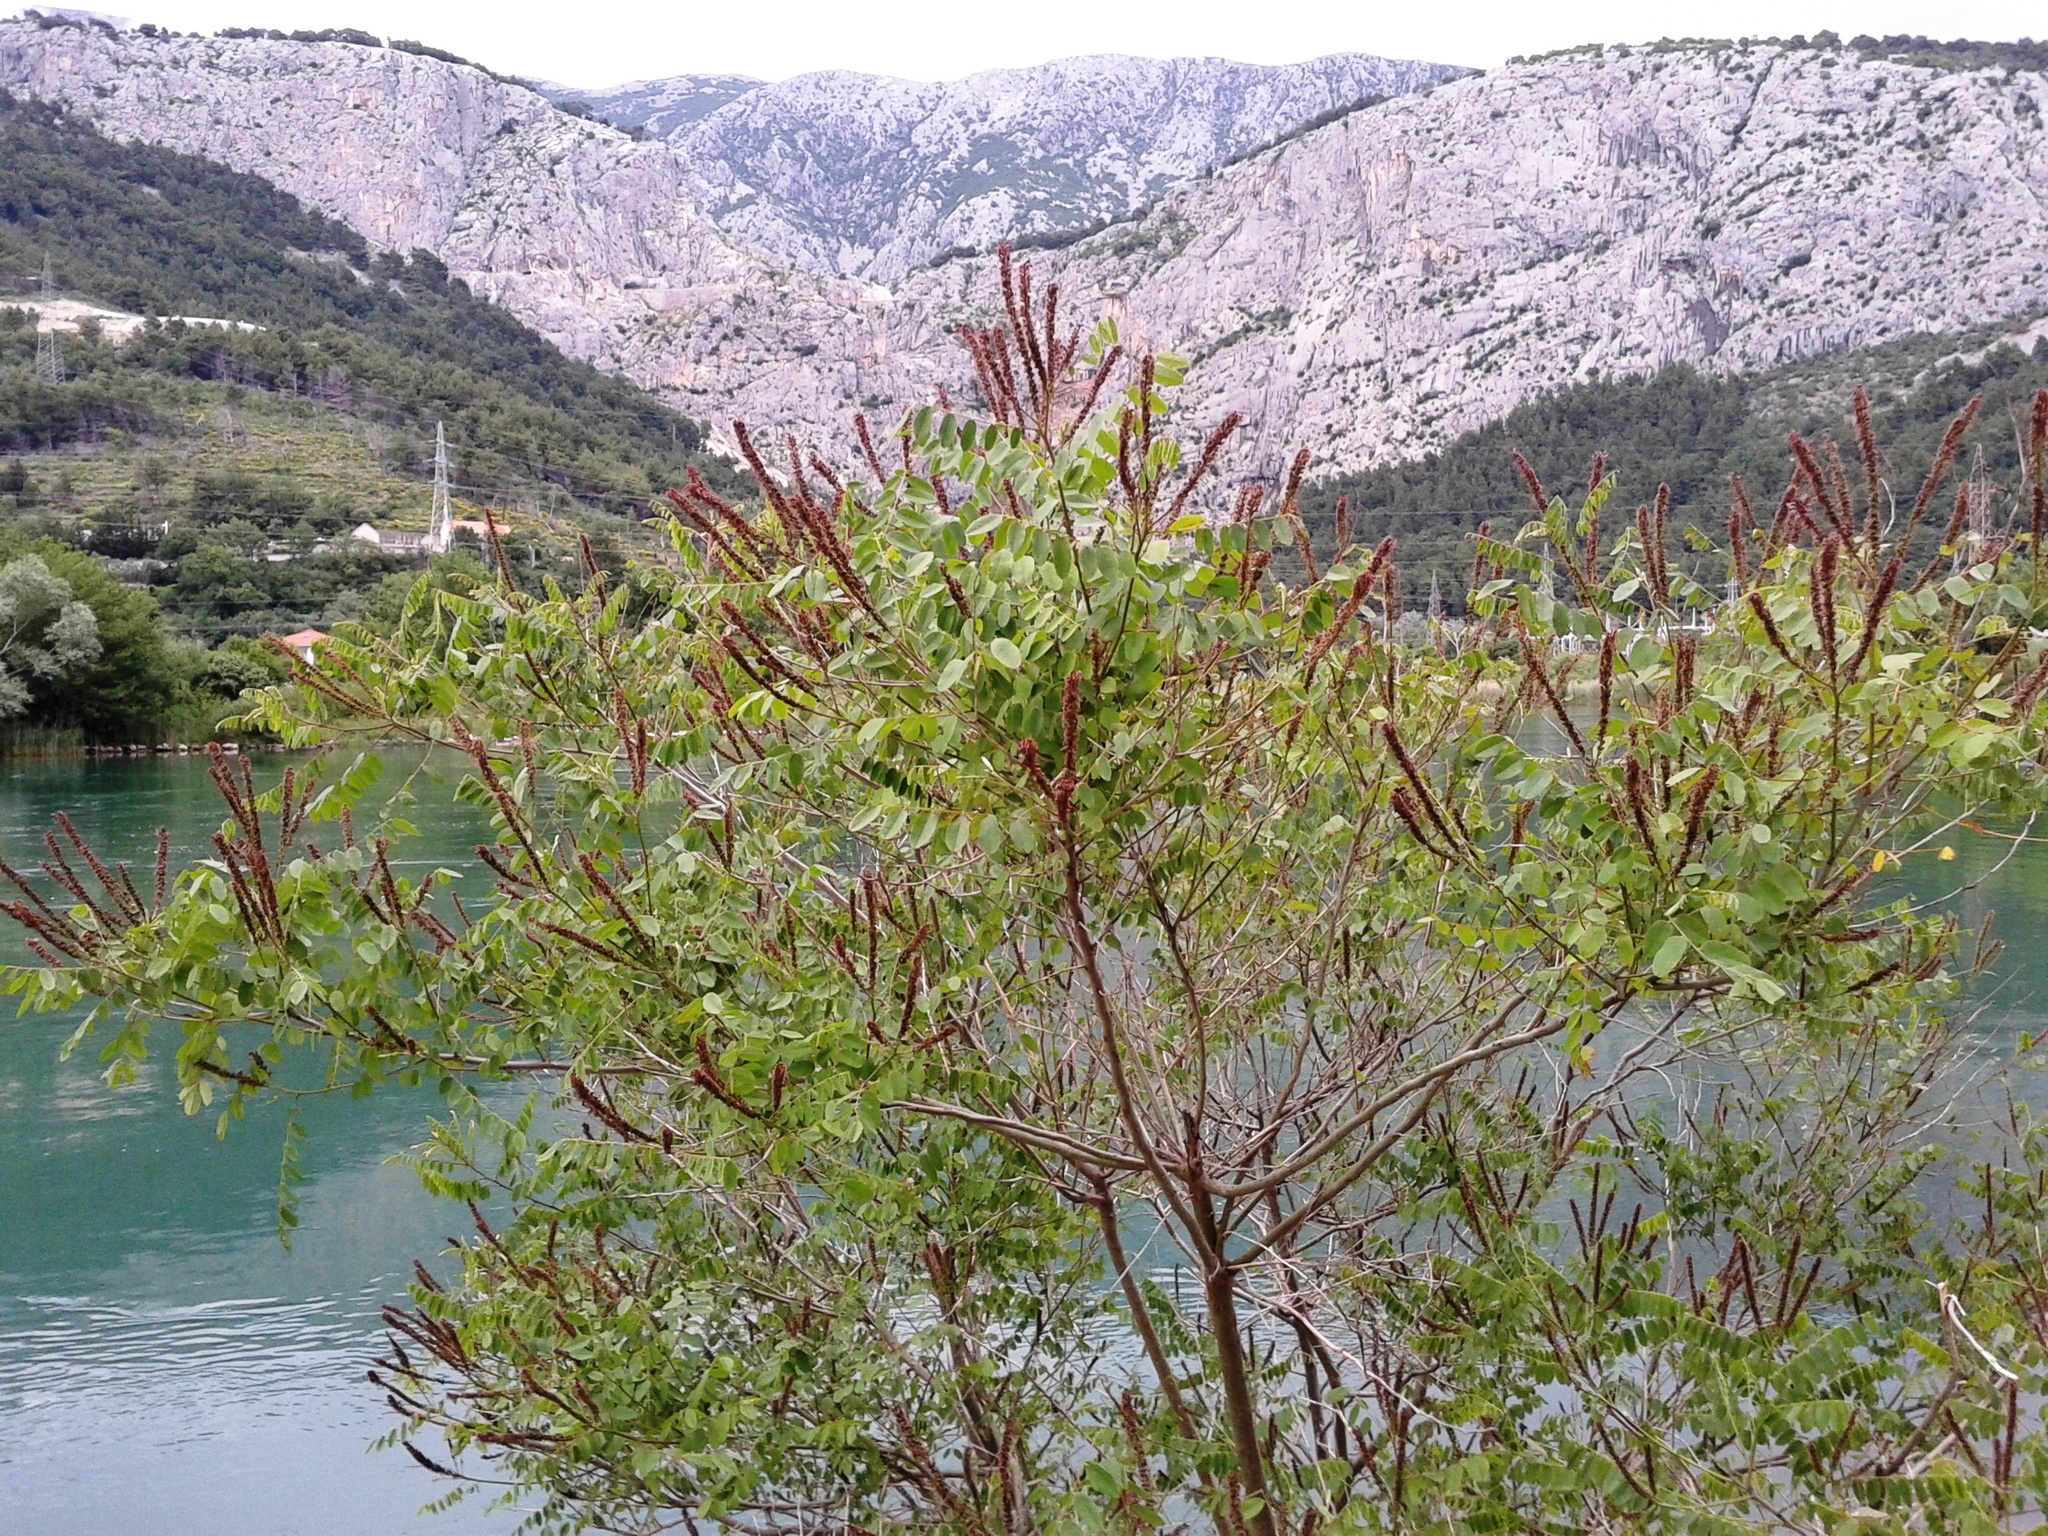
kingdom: Plantae
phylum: Tracheophyta
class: Magnoliopsida
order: Fabales
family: Fabaceae
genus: Amorpha
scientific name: Amorpha fruticosa
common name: False indigo
